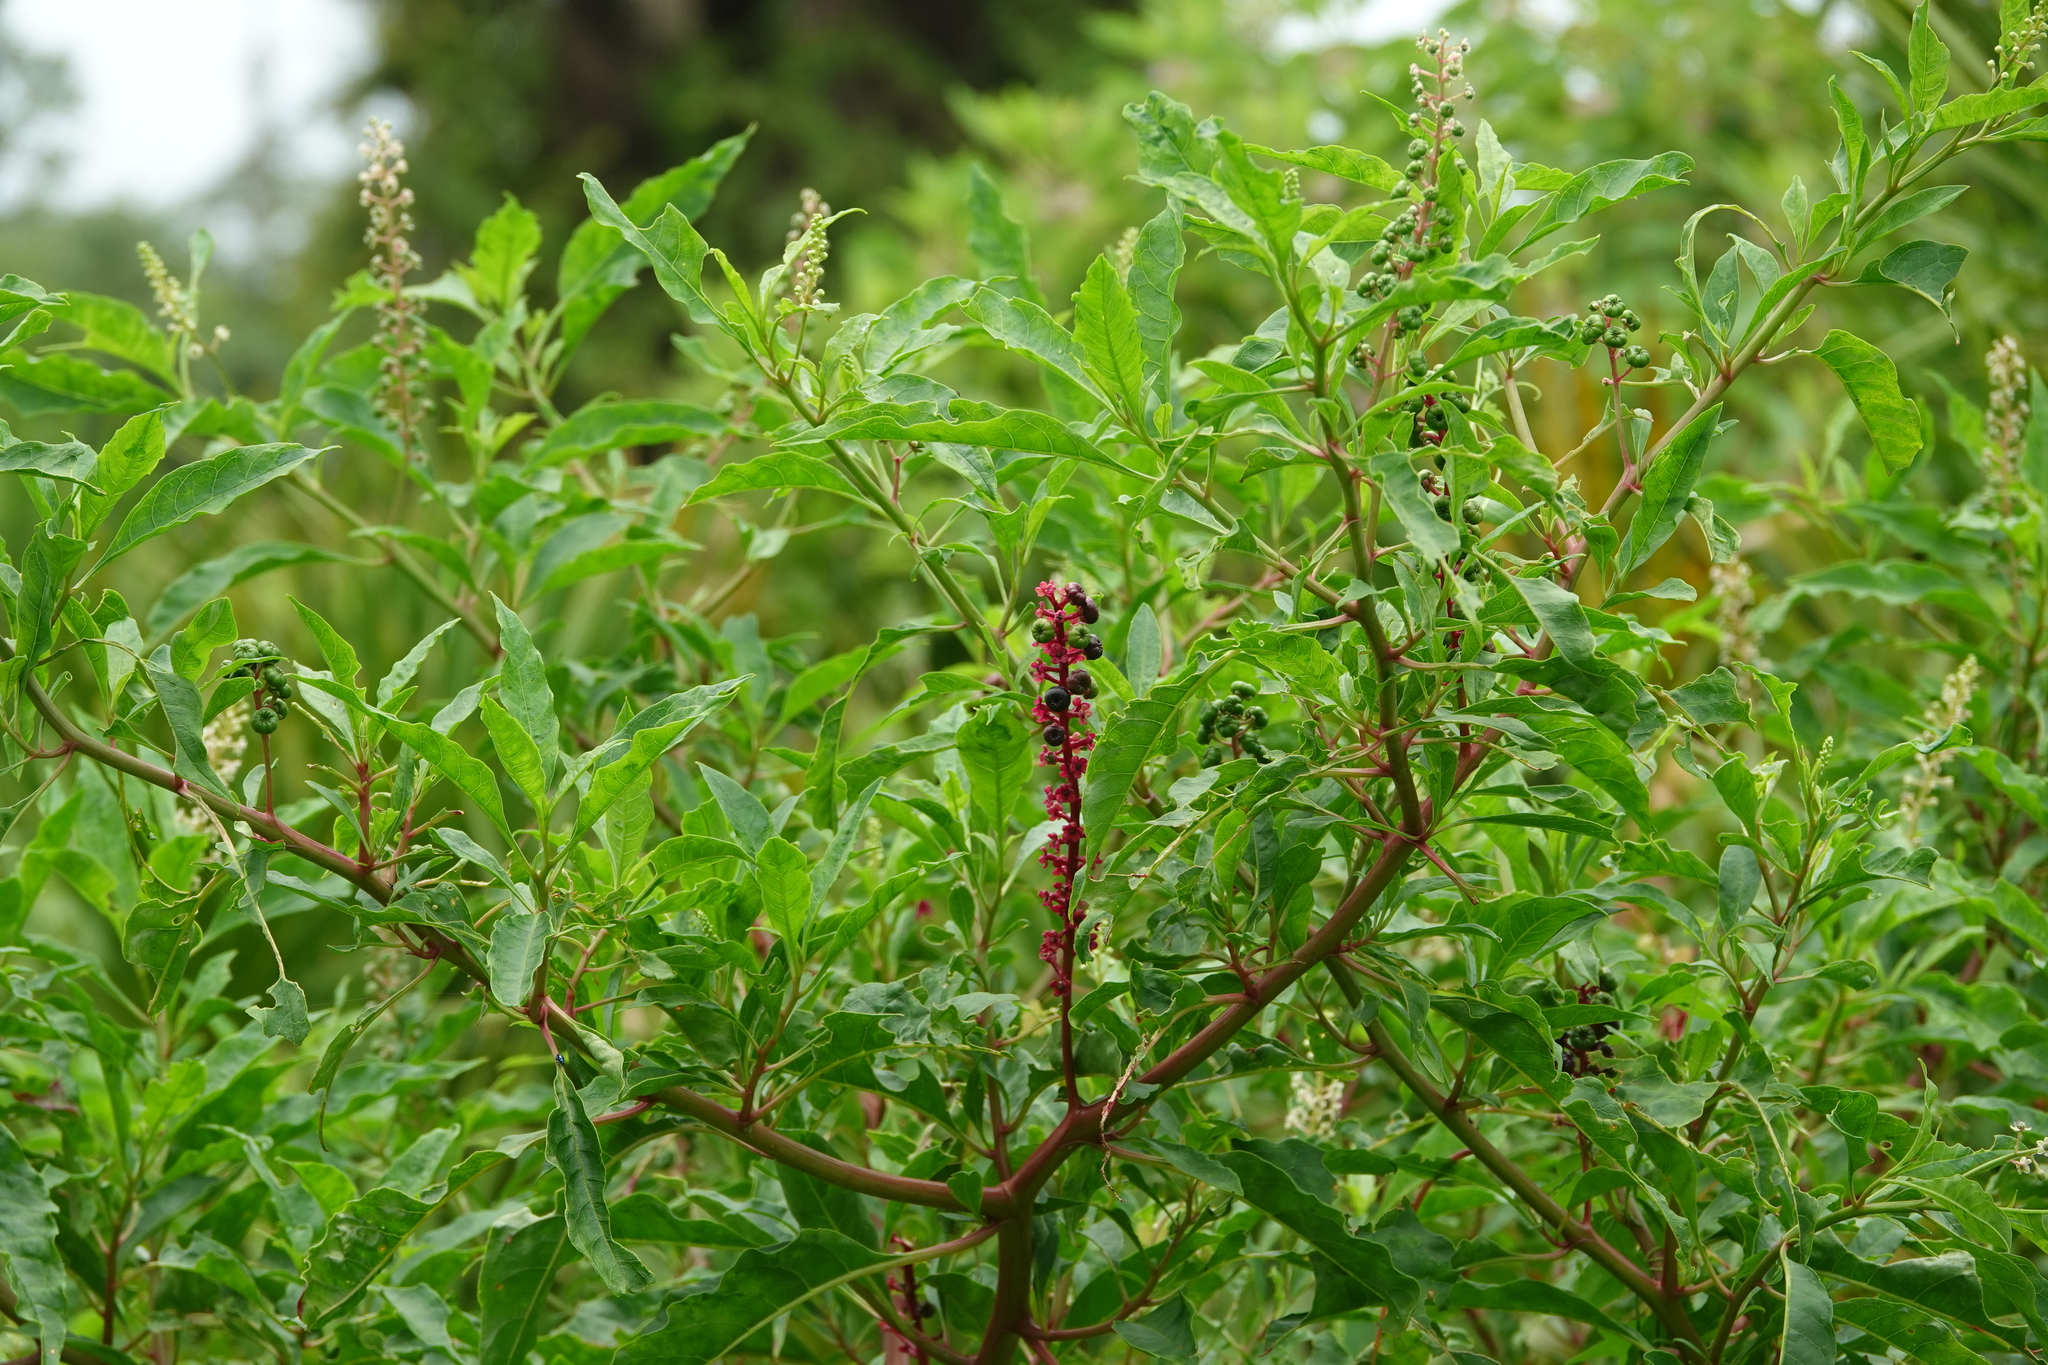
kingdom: Plantae
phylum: Tracheophyta
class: Magnoliopsida
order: Caryophyllales
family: Phytolaccaceae
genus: Phytolacca
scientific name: Phytolacca americana
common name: American pokeweed
